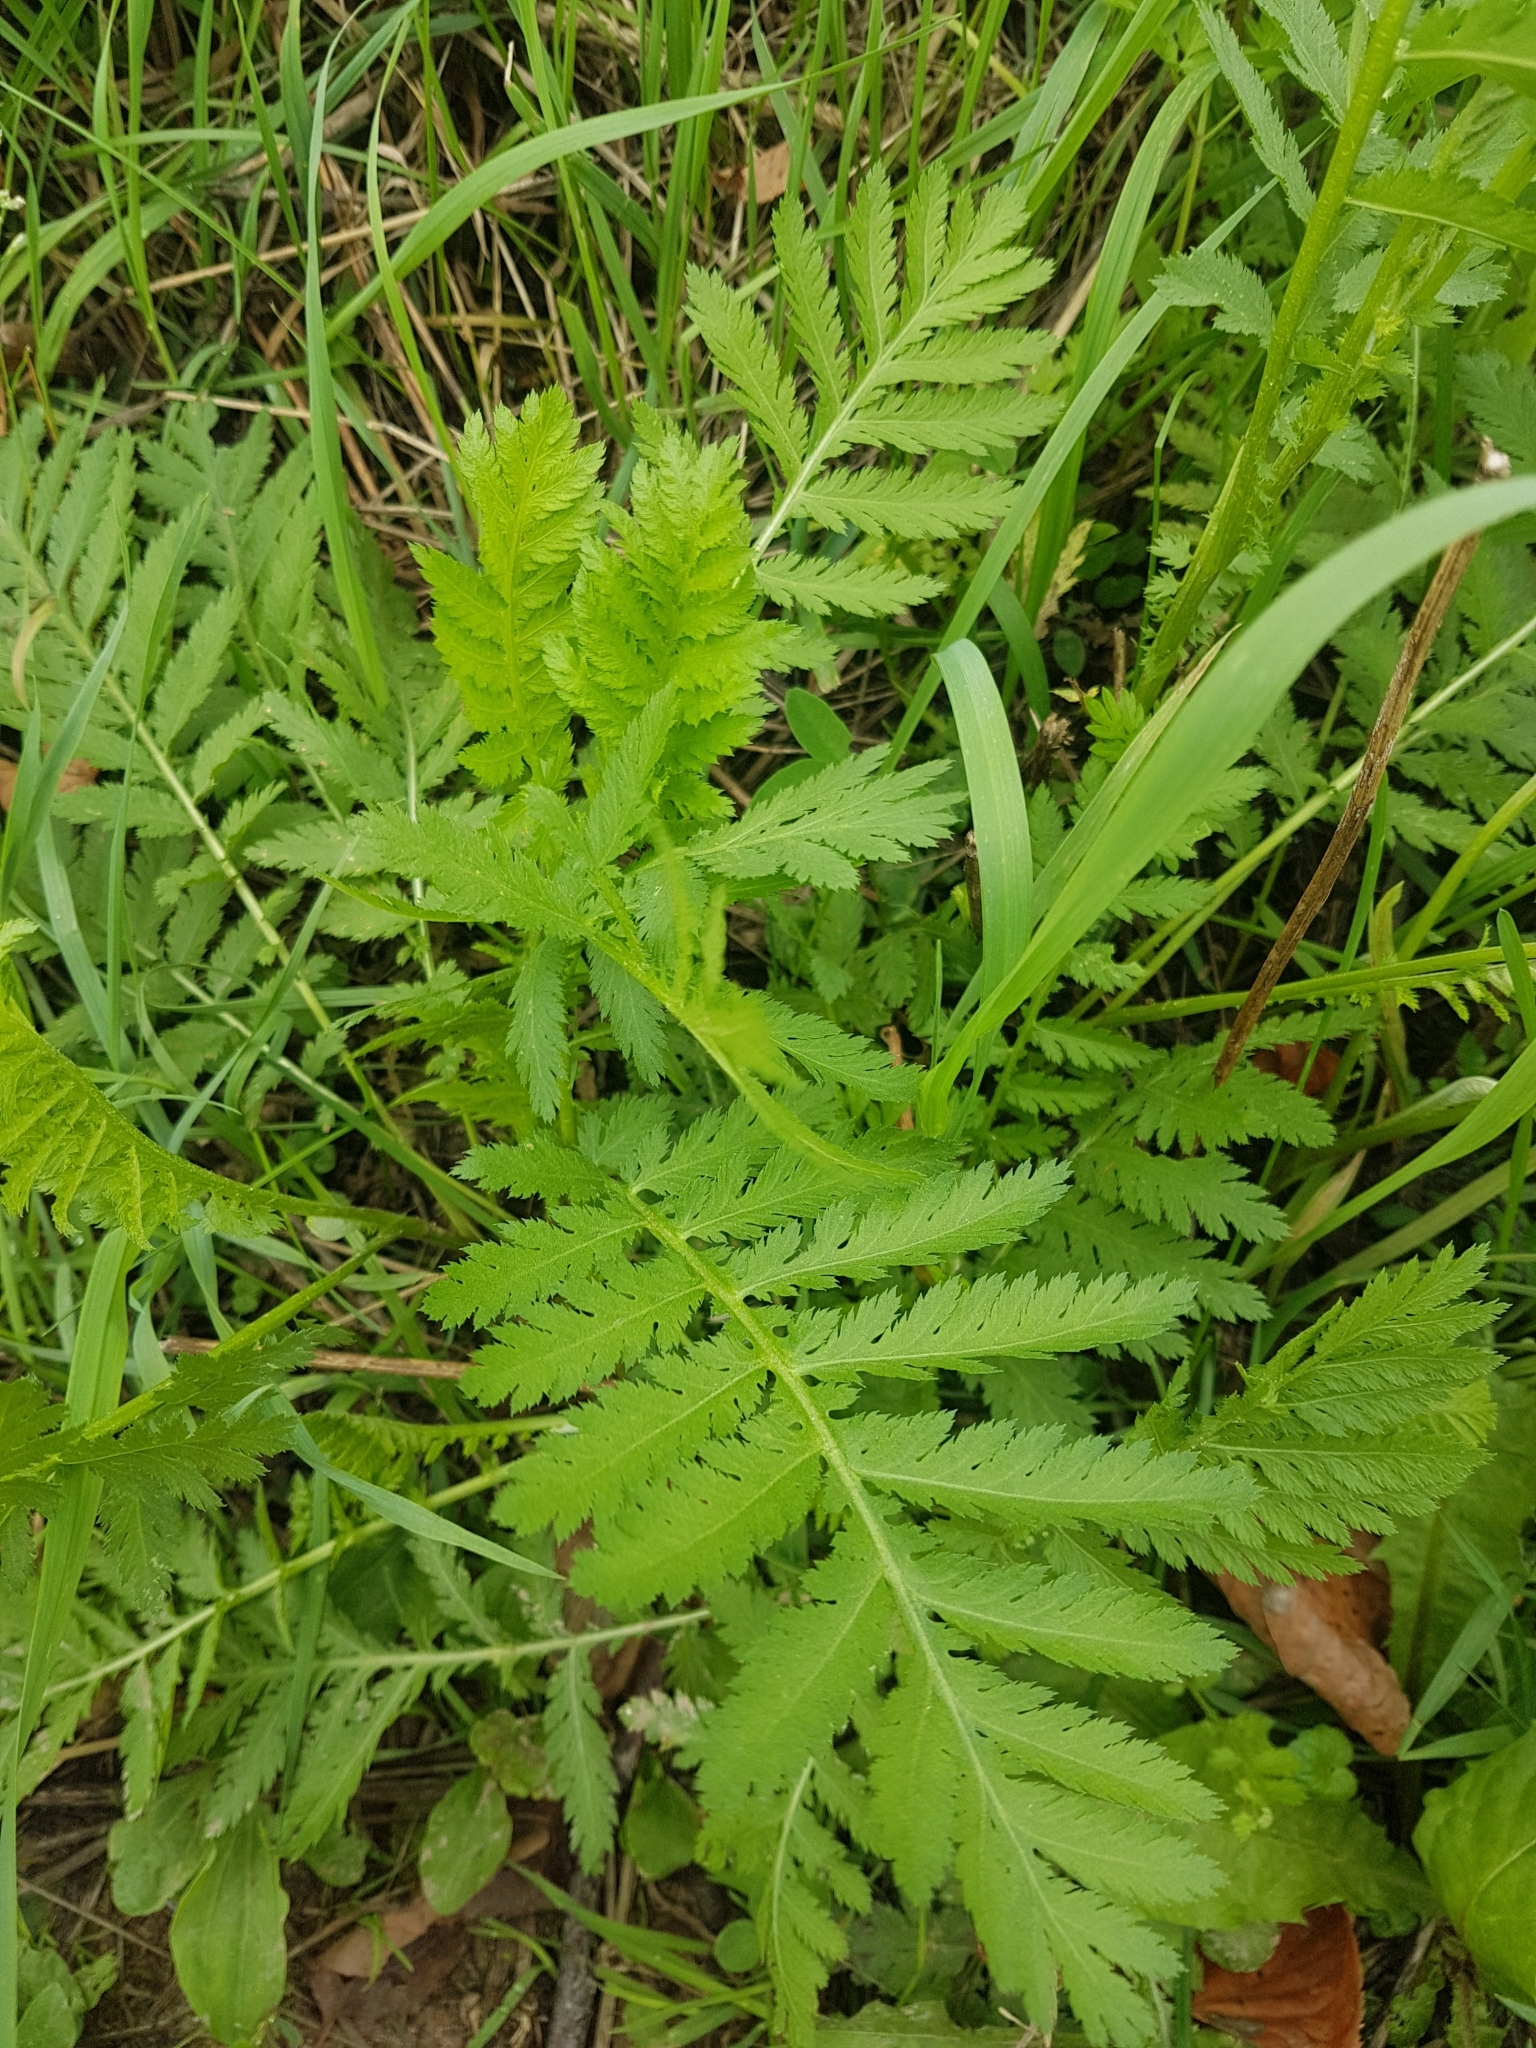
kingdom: Plantae
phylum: Tracheophyta
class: Magnoliopsida
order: Asterales
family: Asteraceae
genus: Tanacetum
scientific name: Tanacetum vulgare
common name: Common tansy
